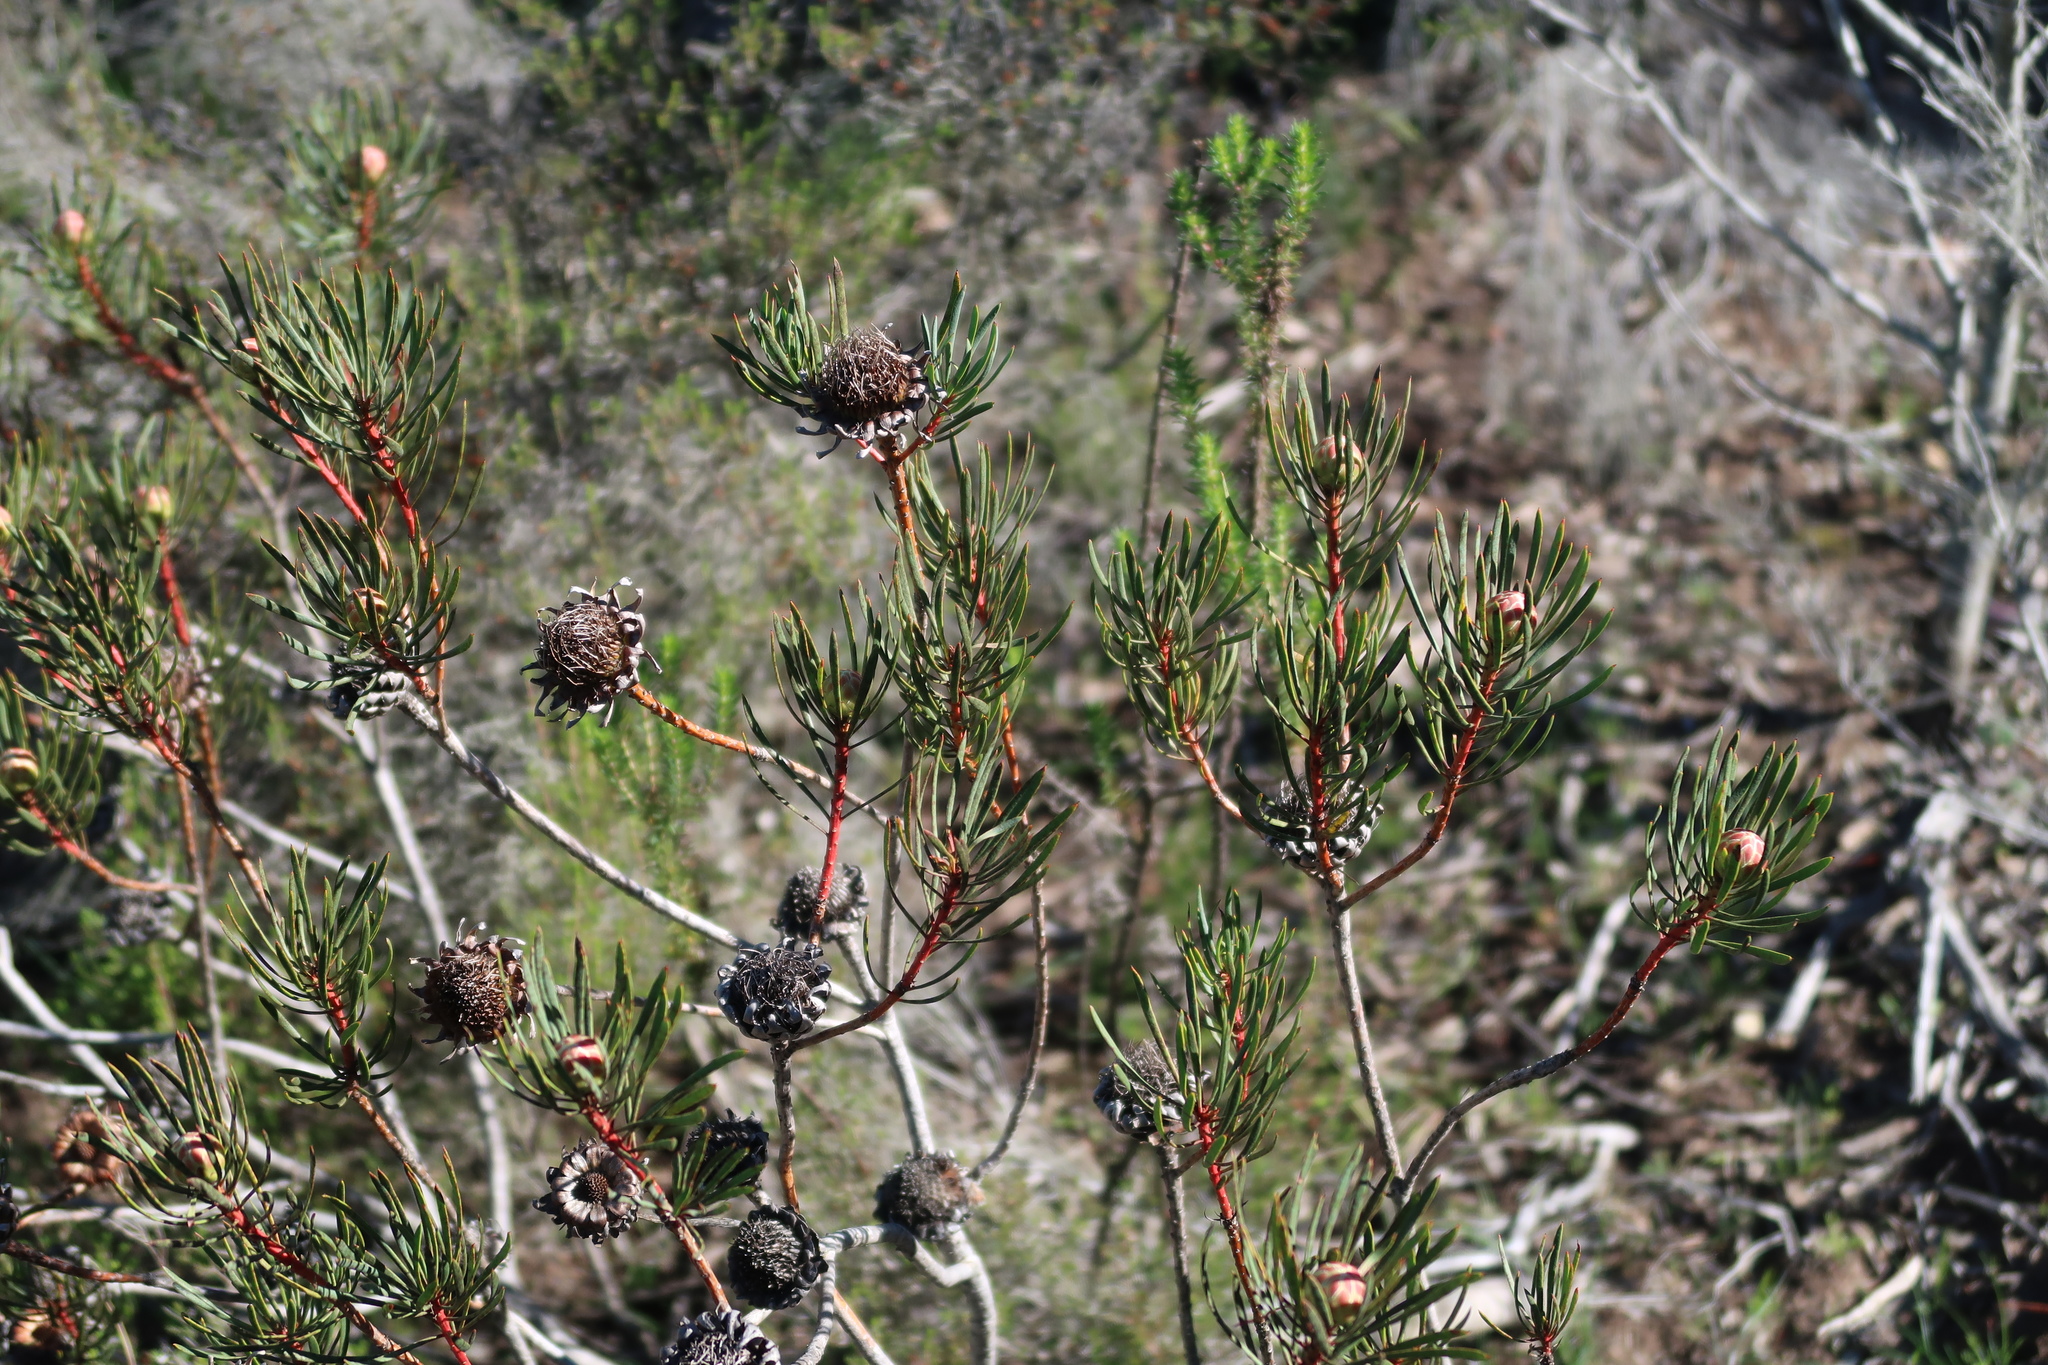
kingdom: Plantae
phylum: Tracheophyta
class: Magnoliopsida
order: Proteales
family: Proteaceae
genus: Protea
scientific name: Protea scolymocephala
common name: Thistle sugarbush
